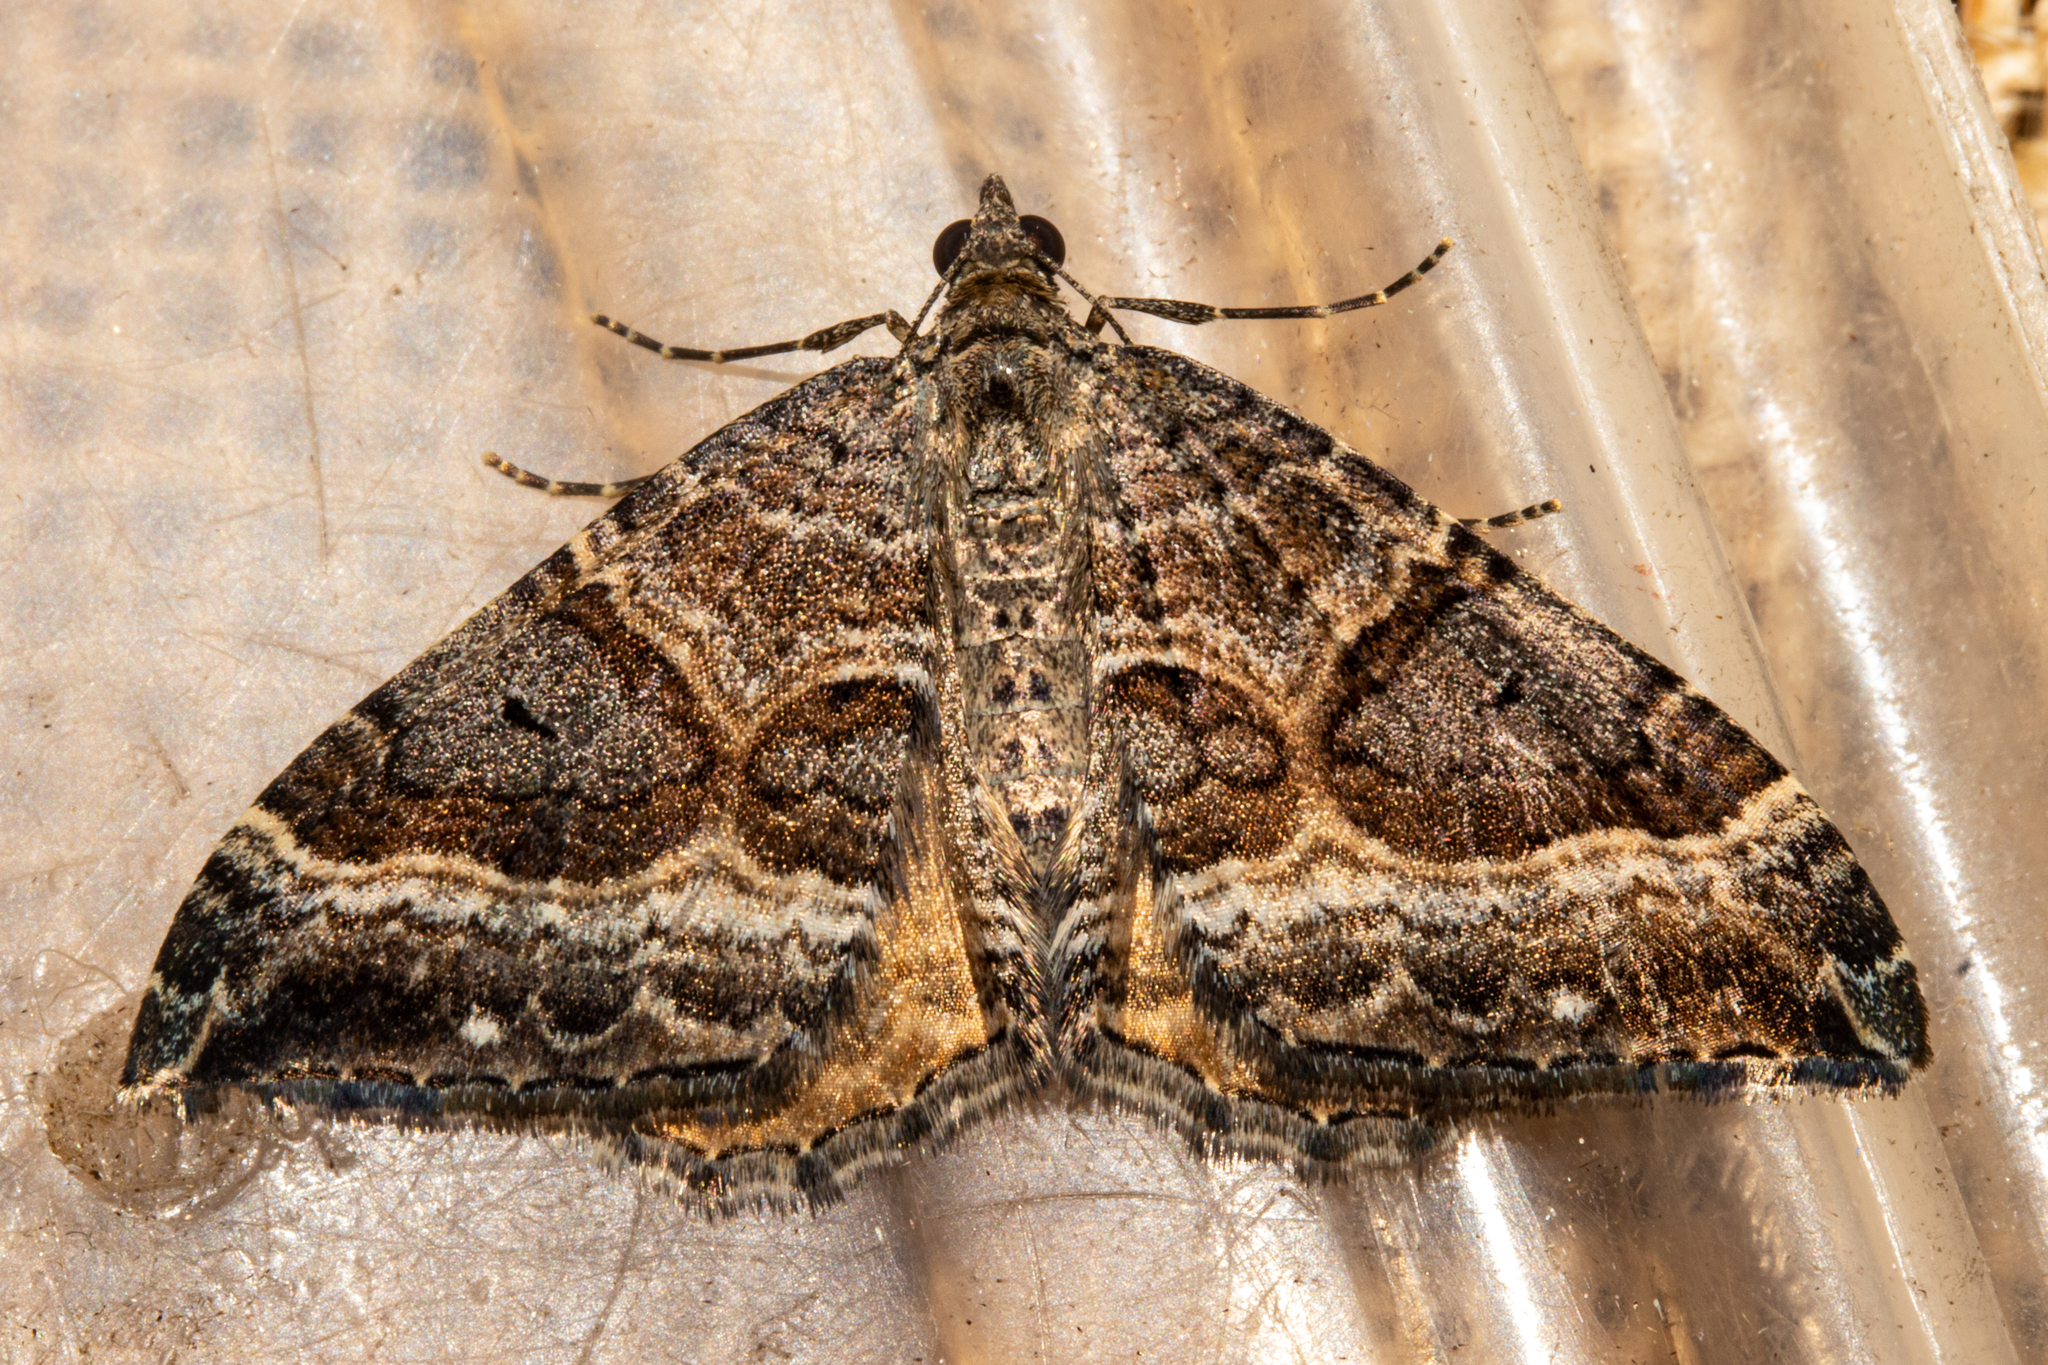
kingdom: Animalia
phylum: Arthropoda
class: Insecta
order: Lepidoptera
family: Geometridae
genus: Hydriomena
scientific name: Hydriomena deltoidata
